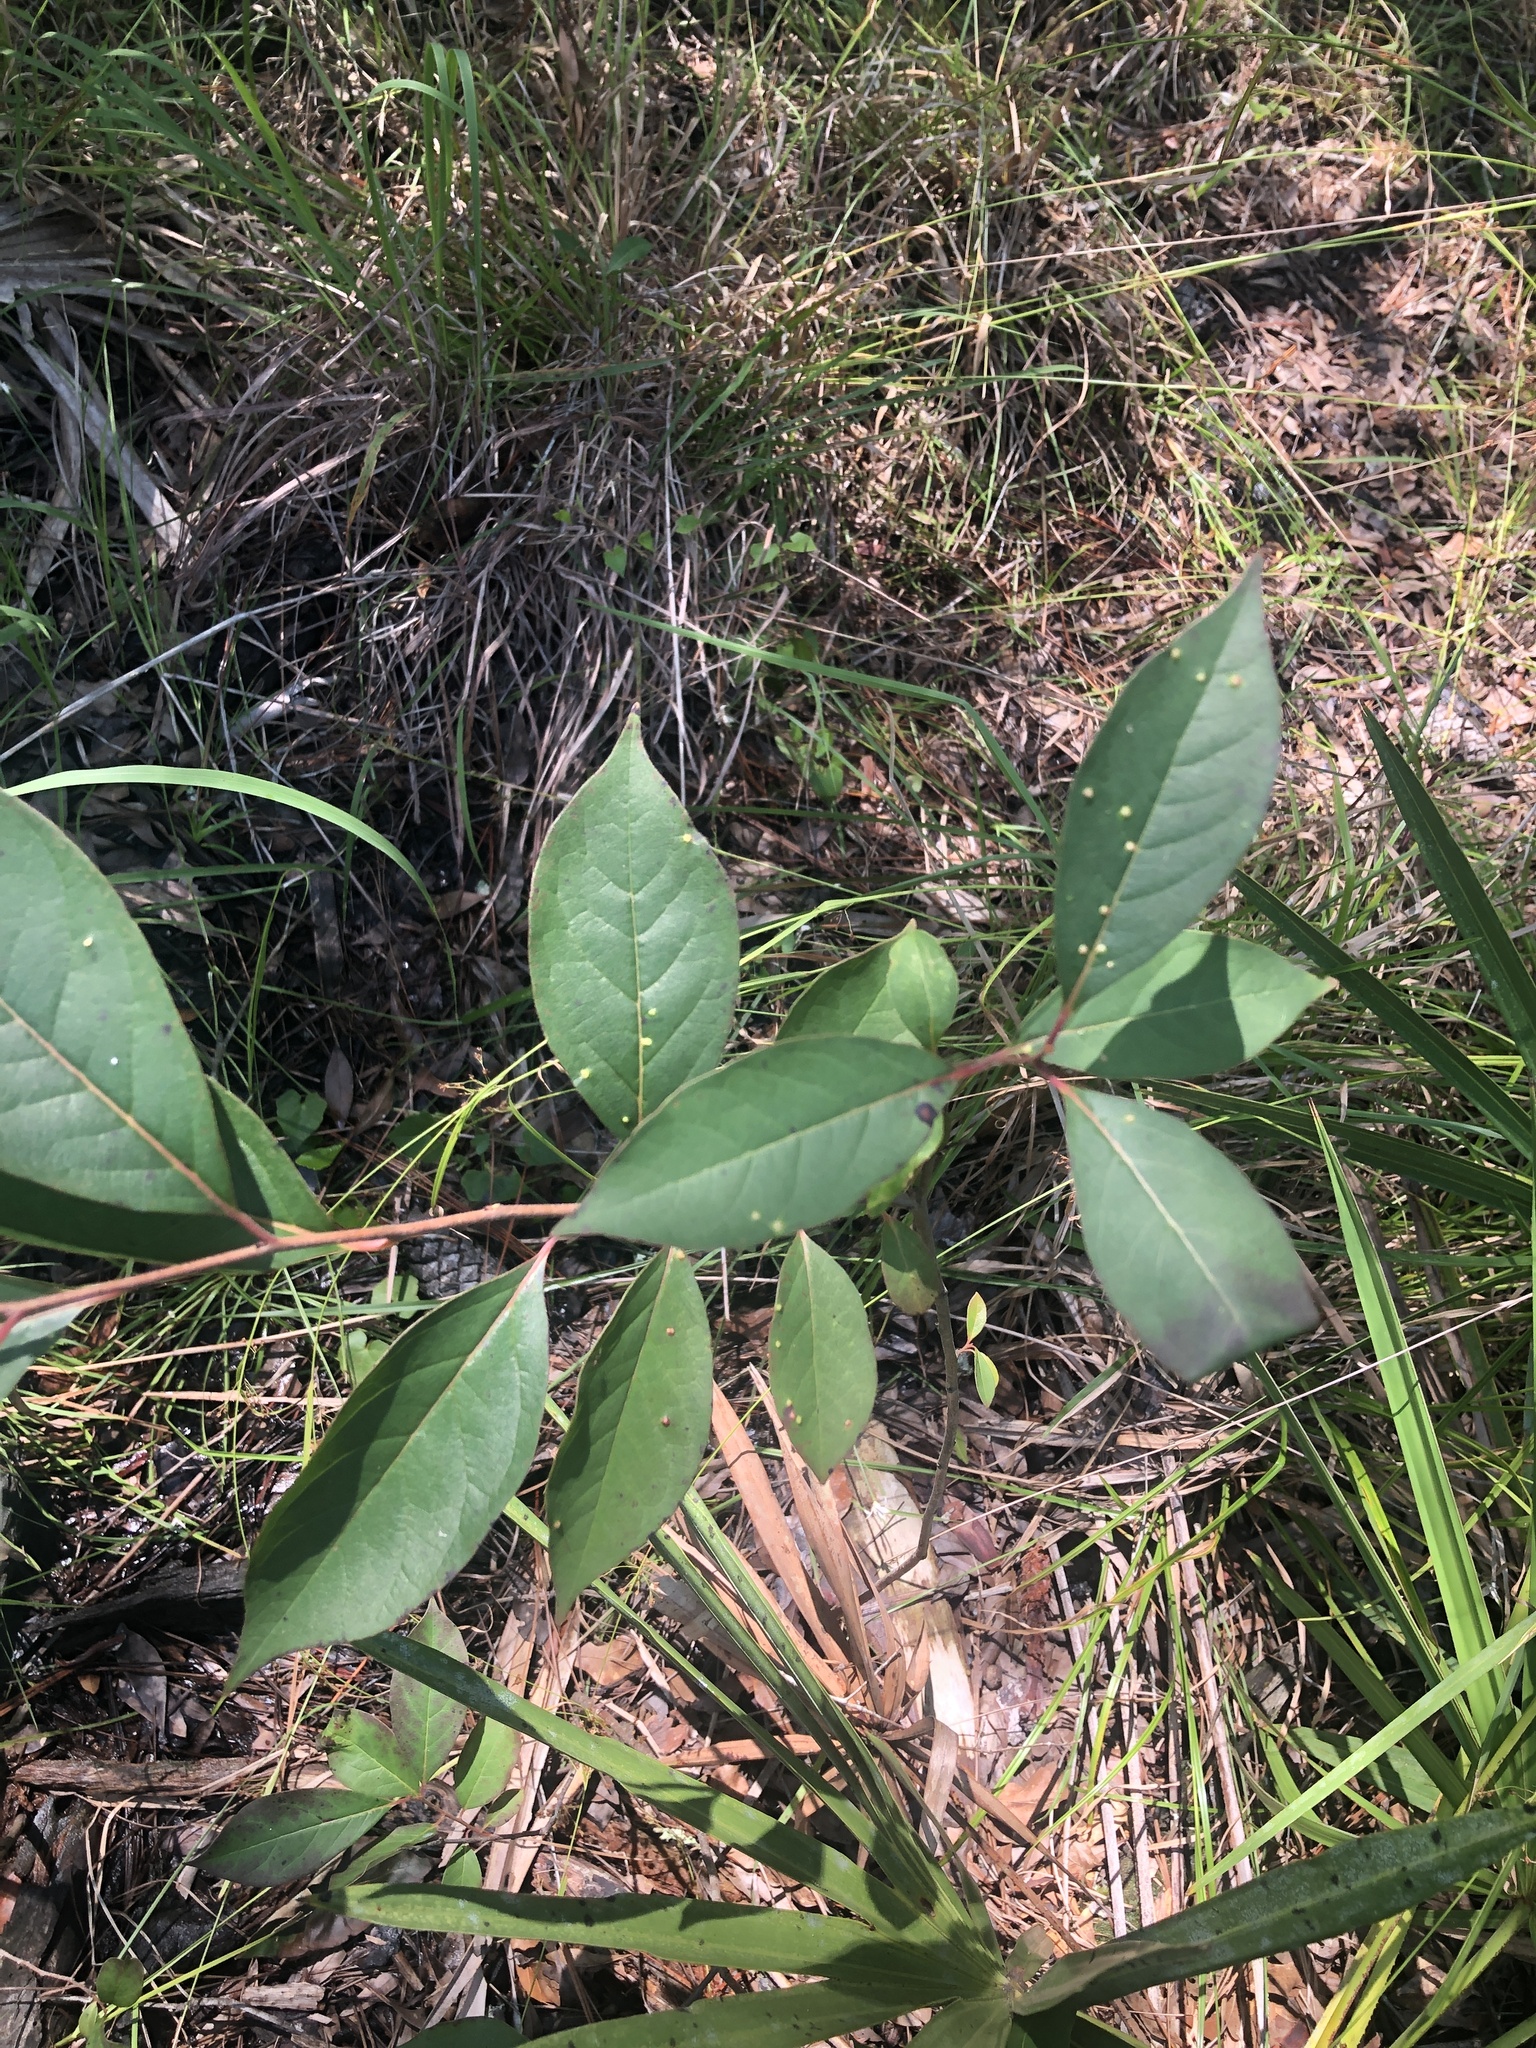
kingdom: Plantae
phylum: Tracheophyta
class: Magnoliopsida
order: Ericales
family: Ebenaceae
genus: Diospyros
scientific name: Diospyros virginiana
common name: Persimmon
